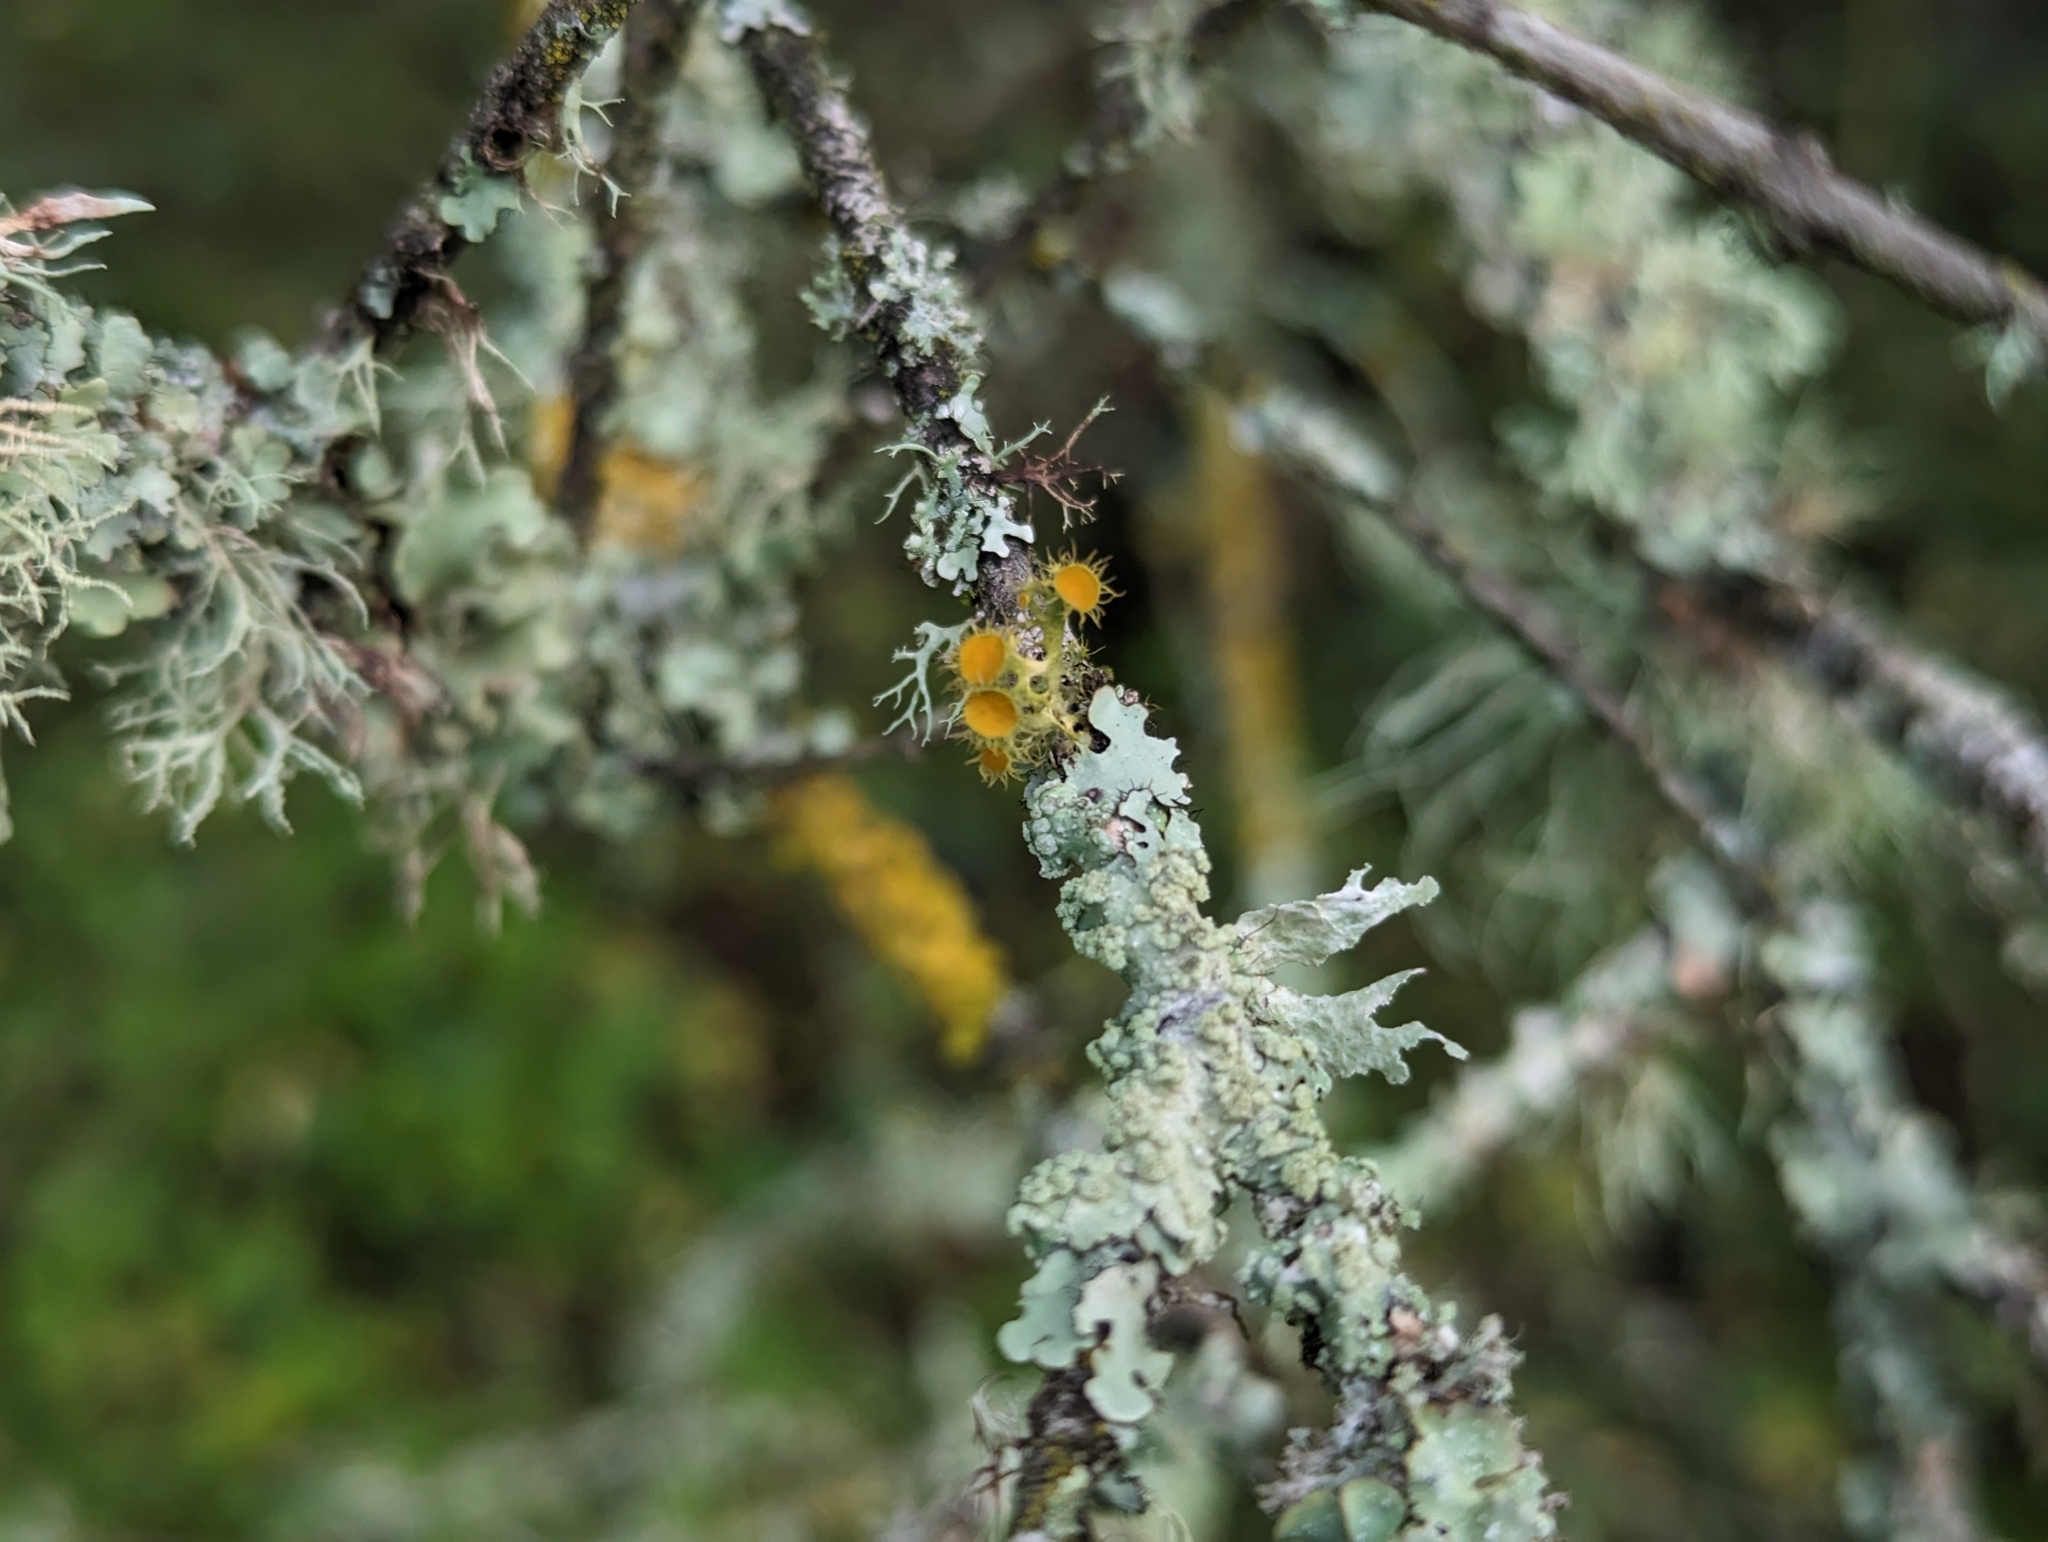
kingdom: Fungi
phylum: Ascomycota
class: Lecanoromycetes
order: Teloschistales
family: Teloschistaceae
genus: Niorma
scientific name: Niorma chrysophthalma
